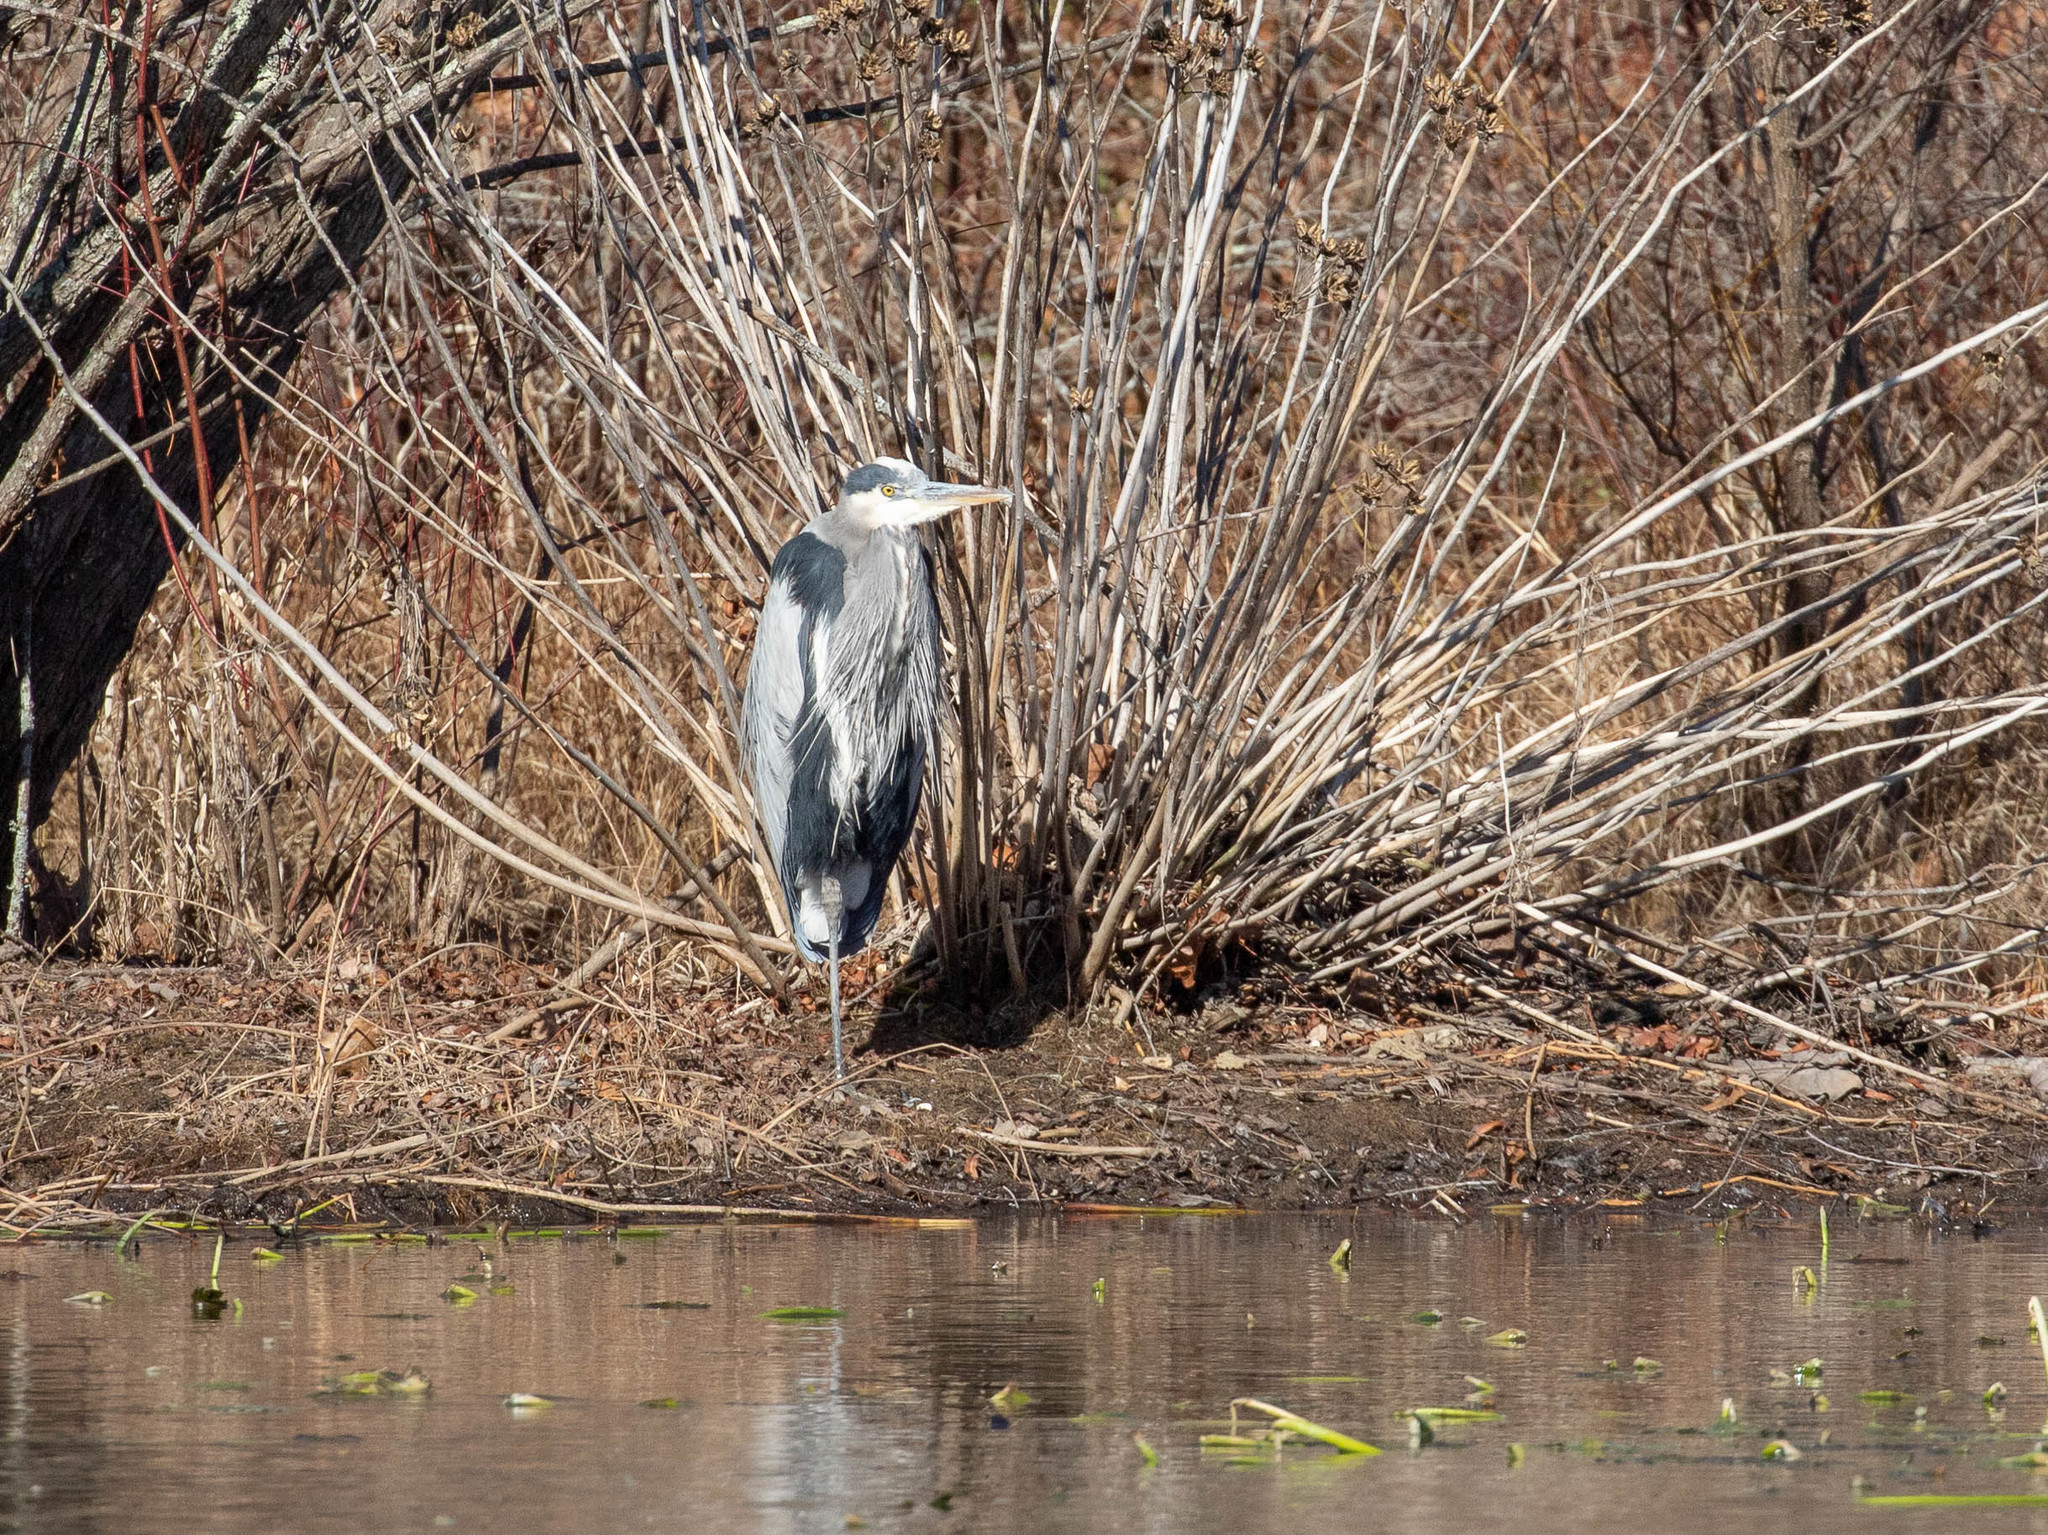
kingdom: Animalia
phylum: Chordata
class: Aves
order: Pelecaniformes
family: Ardeidae
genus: Ardea
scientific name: Ardea herodias
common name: Great blue heron
